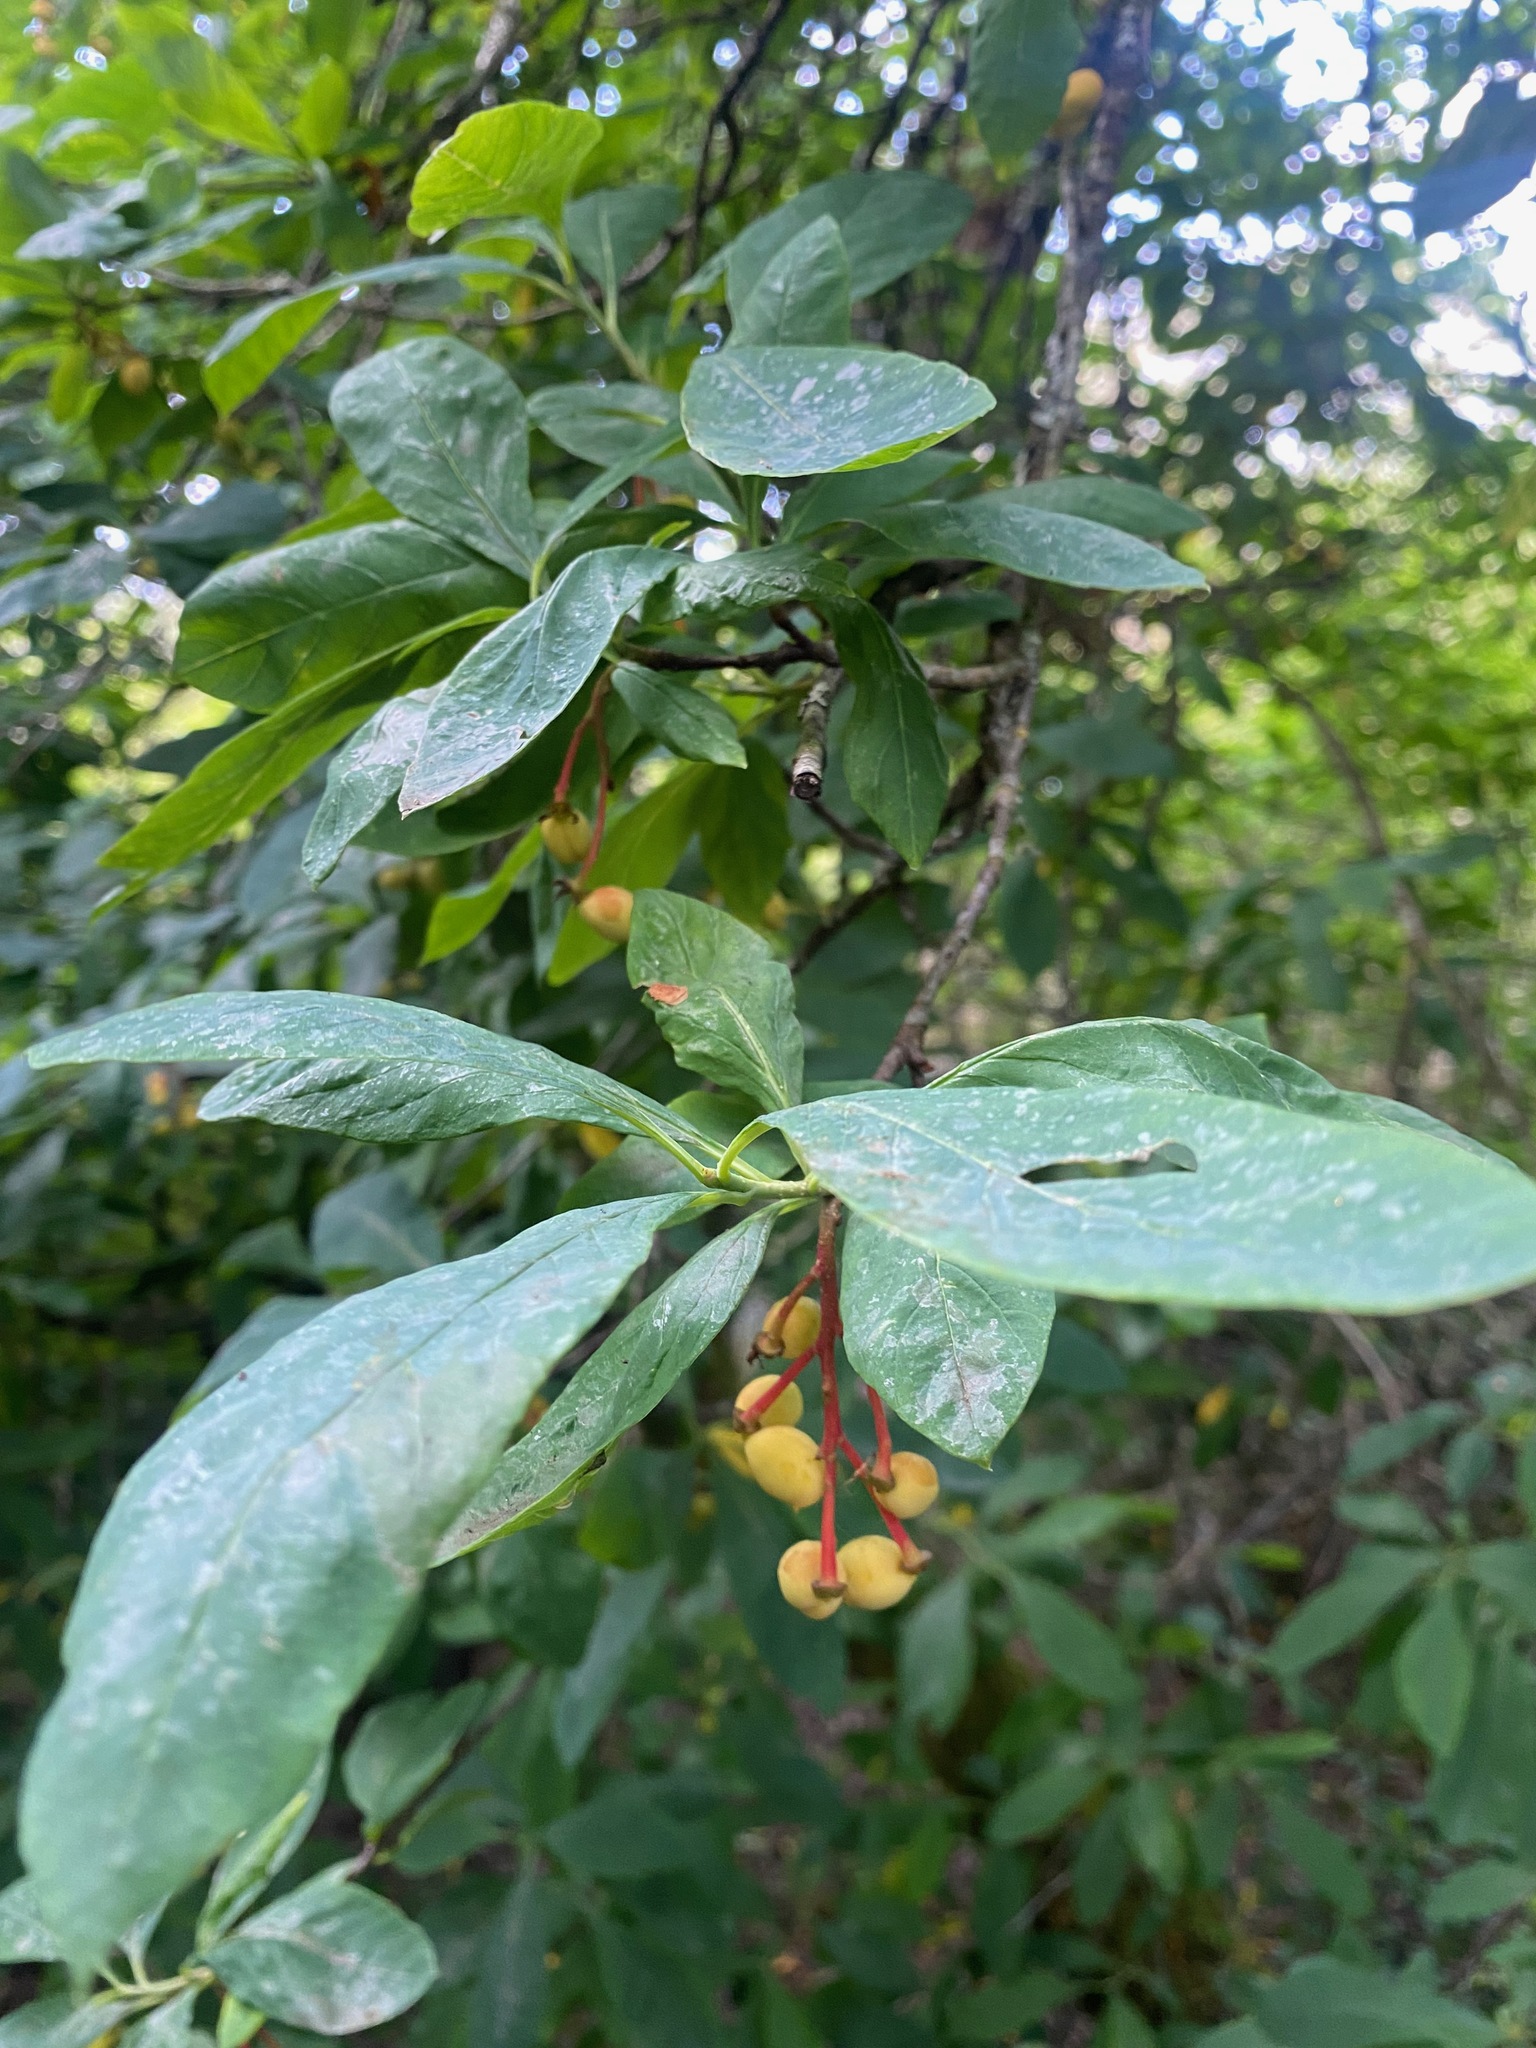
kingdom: Plantae
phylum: Tracheophyta
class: Magnoliopsida
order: Rosales
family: Rosaceae
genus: Oemleria
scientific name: Oemleria cerasiformis
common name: Osoberry
